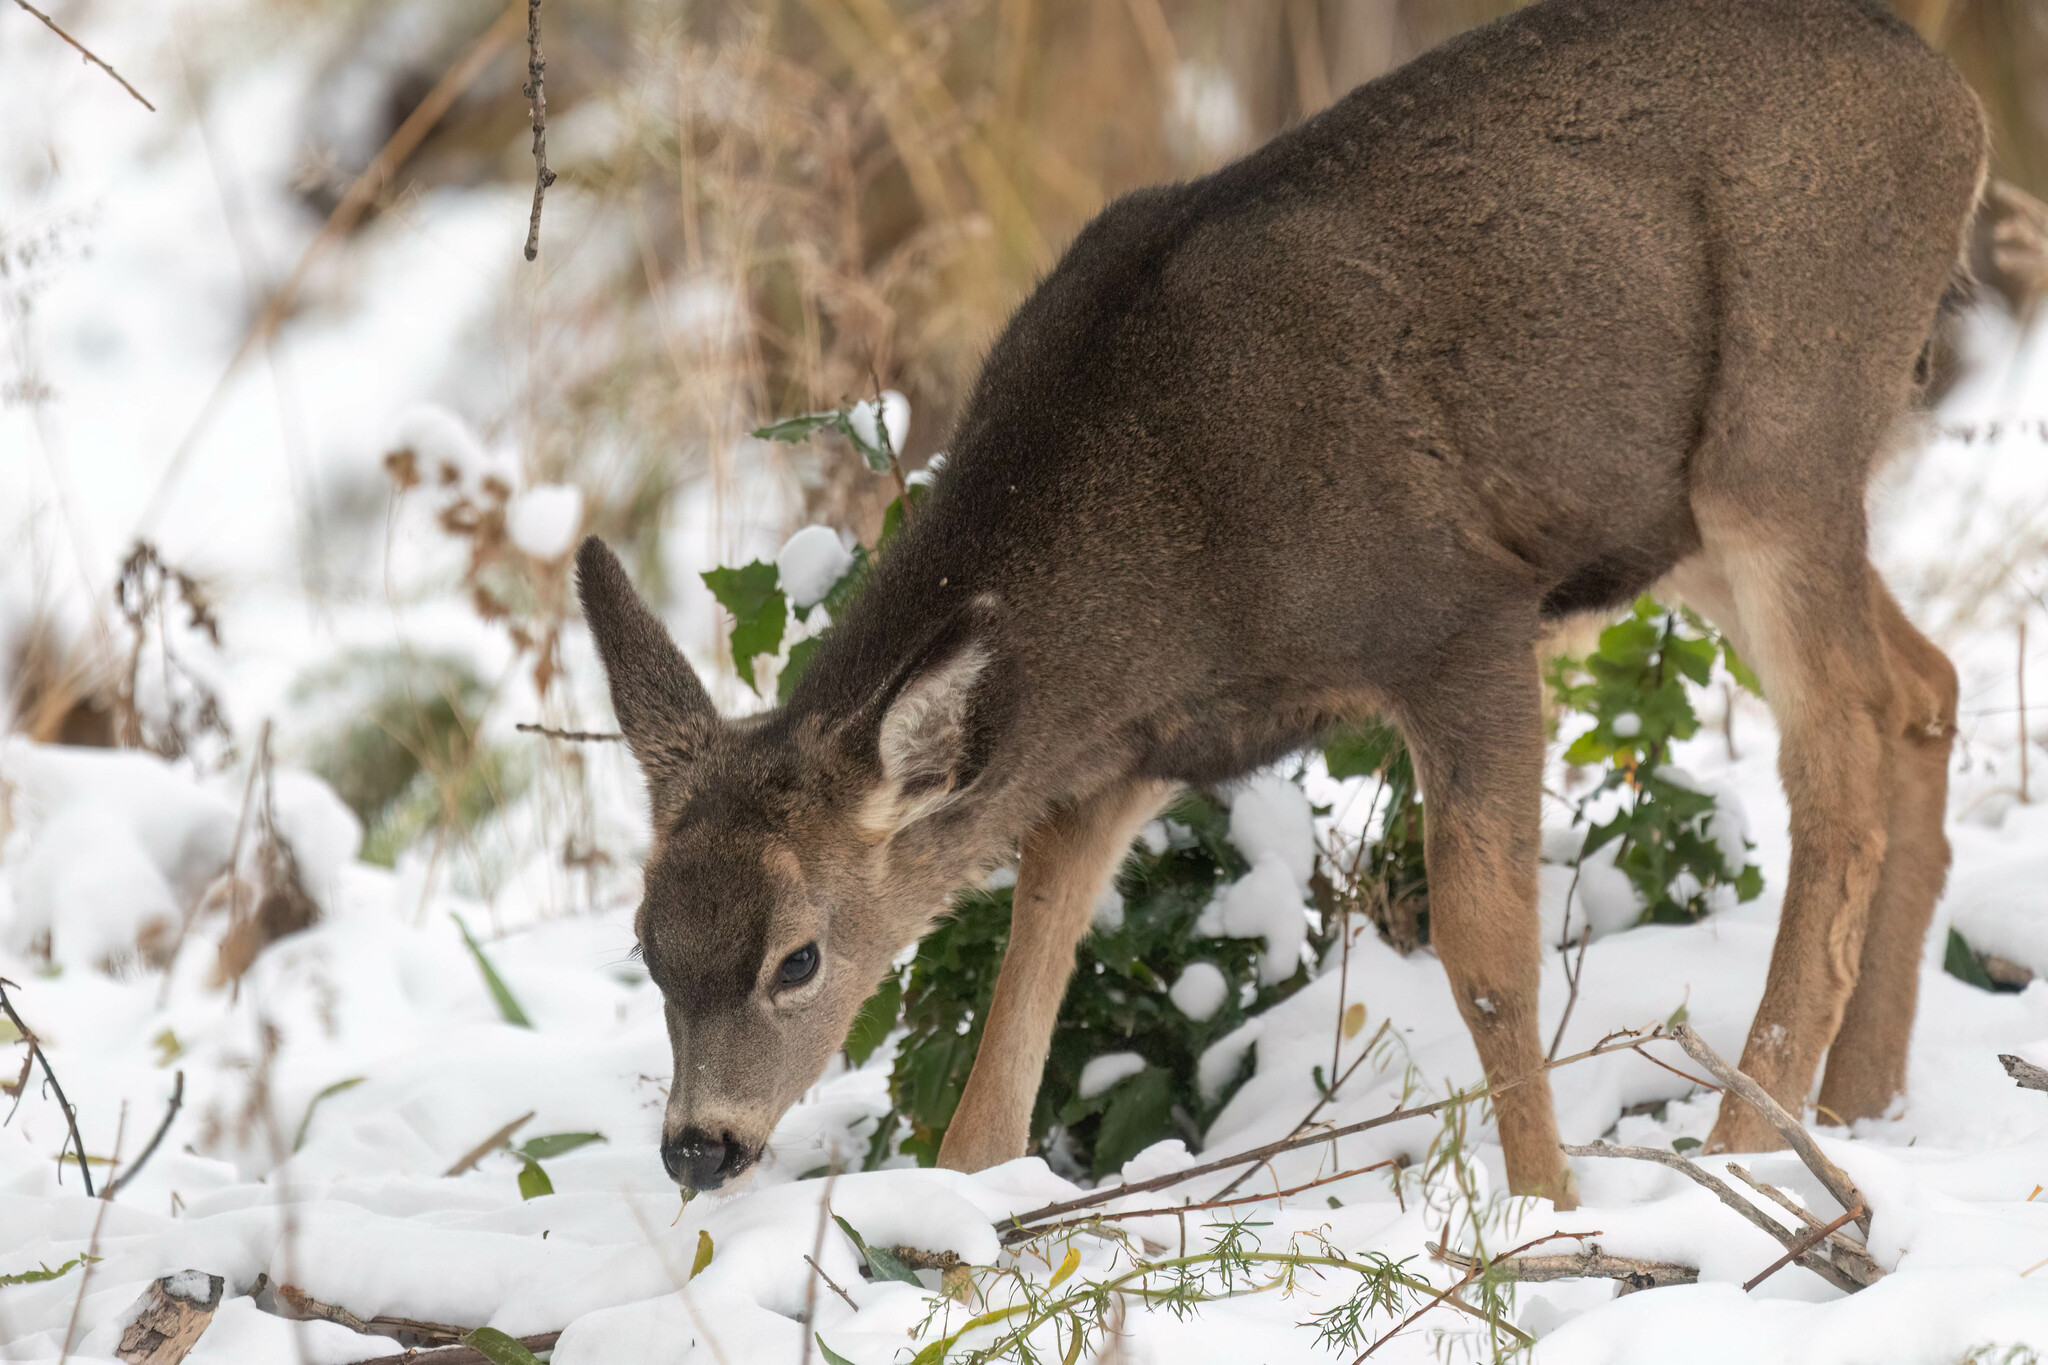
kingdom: Animalia
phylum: Chordata
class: Mammalia
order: Artiodactyla
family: Cervidae
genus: Odocoileus
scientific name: Odocoileus hemionus
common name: Mule deer
